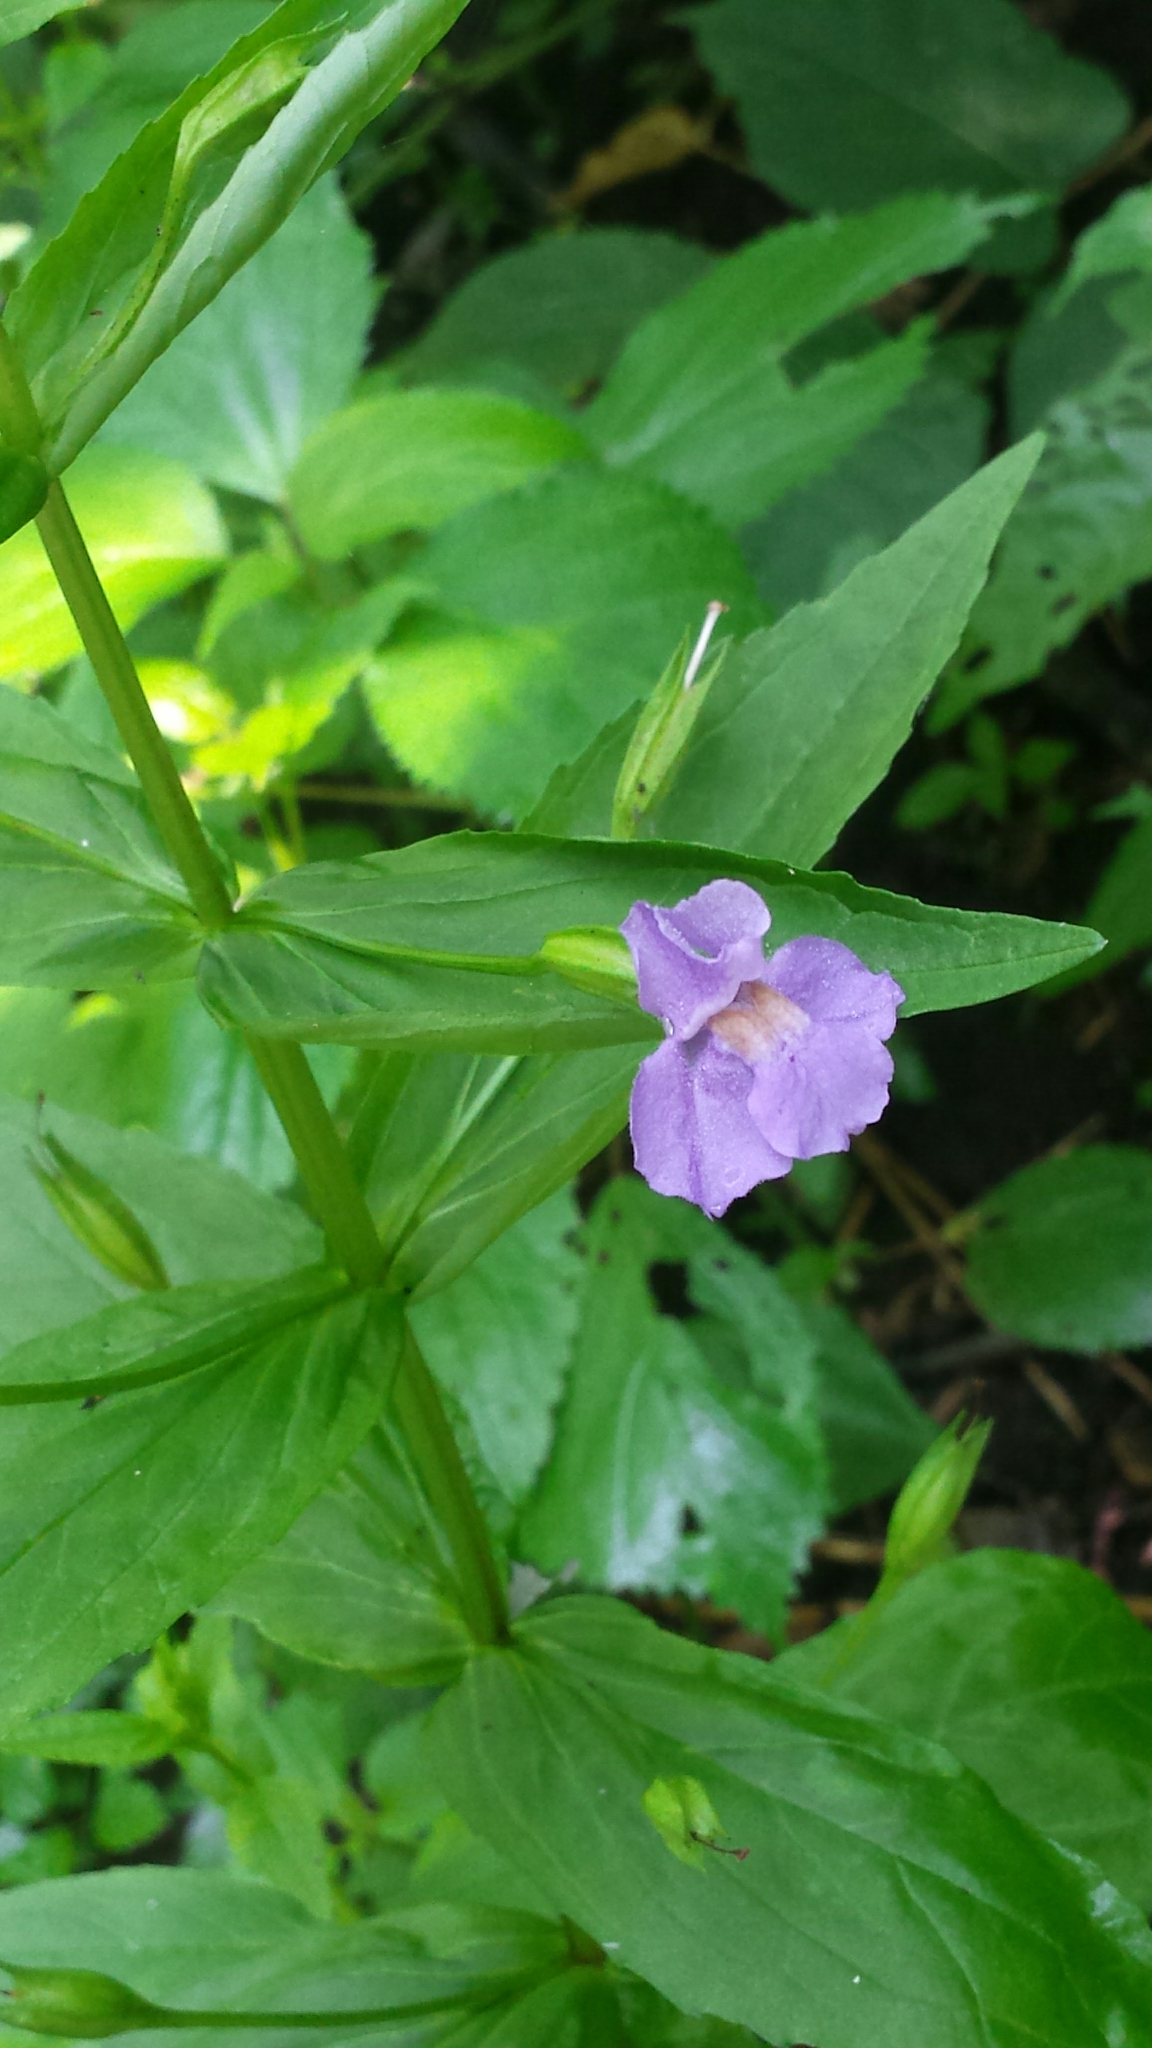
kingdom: Plantae
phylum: Tracheophyta
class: Magnoliopsida
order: Lamiales
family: Phrymaceae
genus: Mimulus
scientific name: Mimulus ringens
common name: Allegheny monkeyflower
